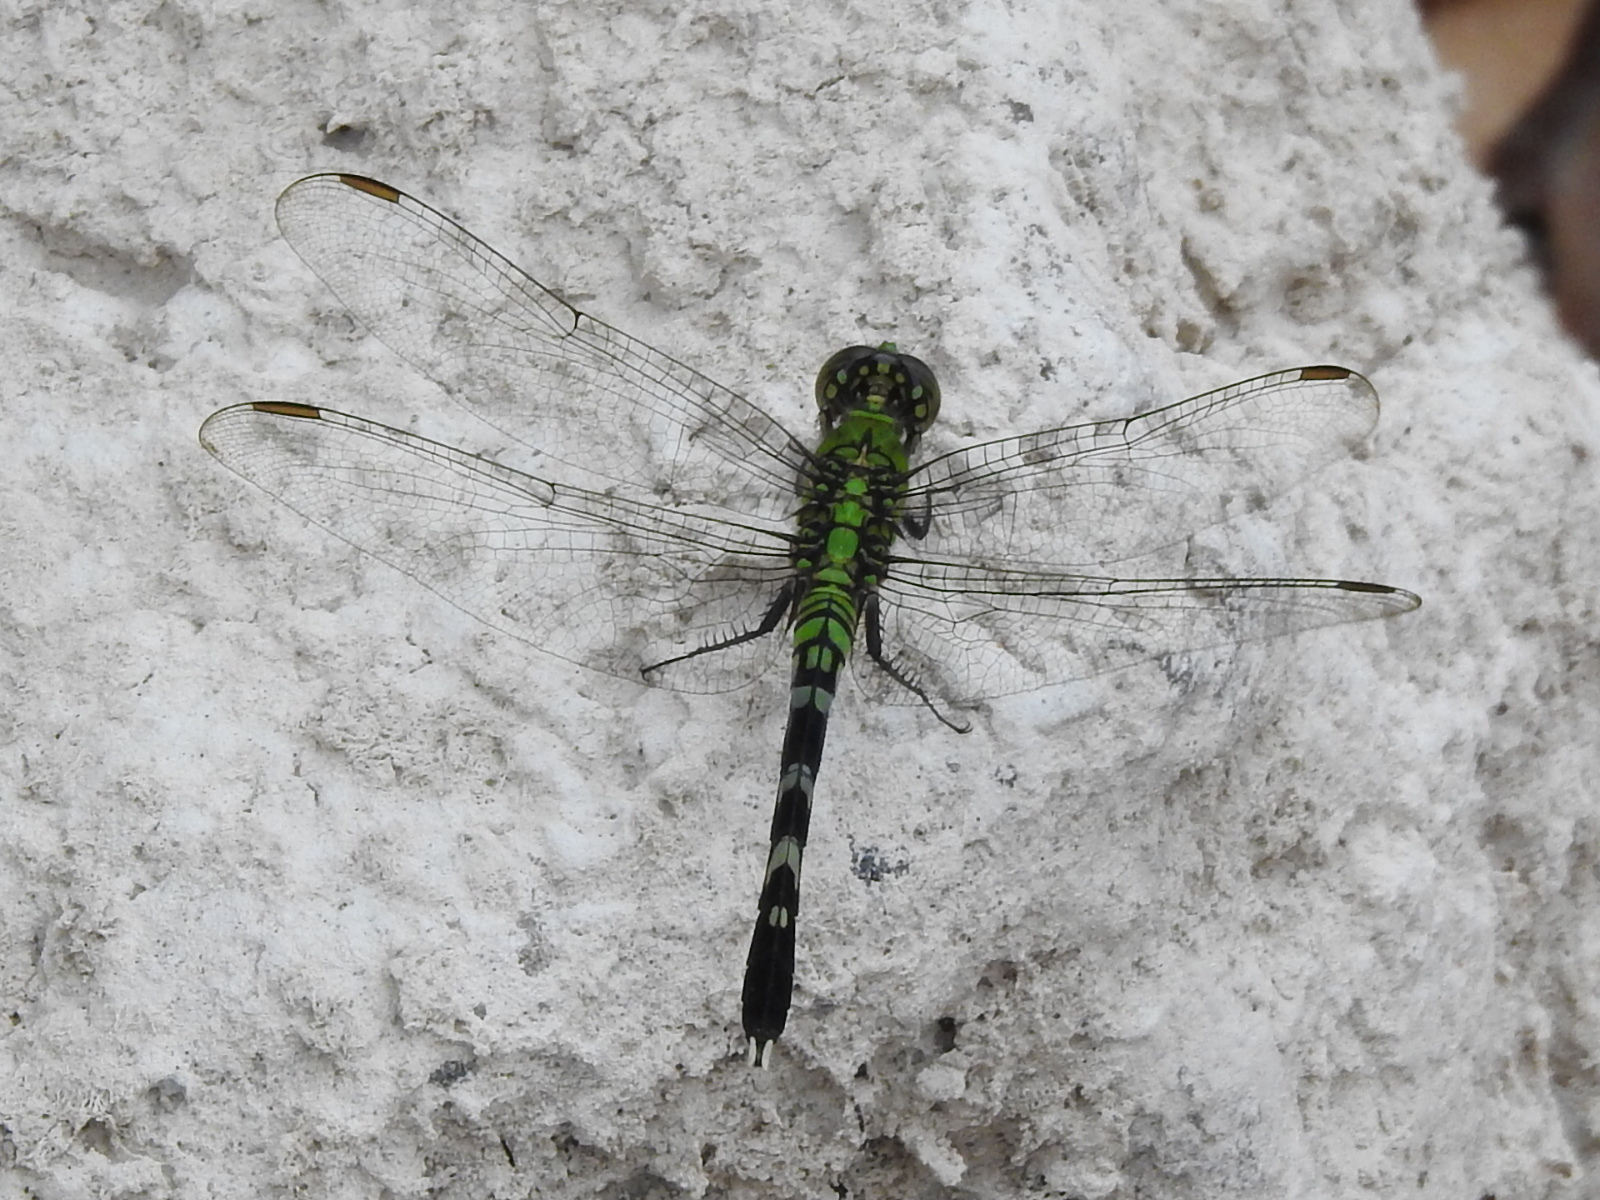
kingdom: Animalia
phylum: Arthropoda
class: Insecta
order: Odonata
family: Libellulidae
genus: Erythemis
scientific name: Erythemis simplicicollis
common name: Eastern pondhawk
